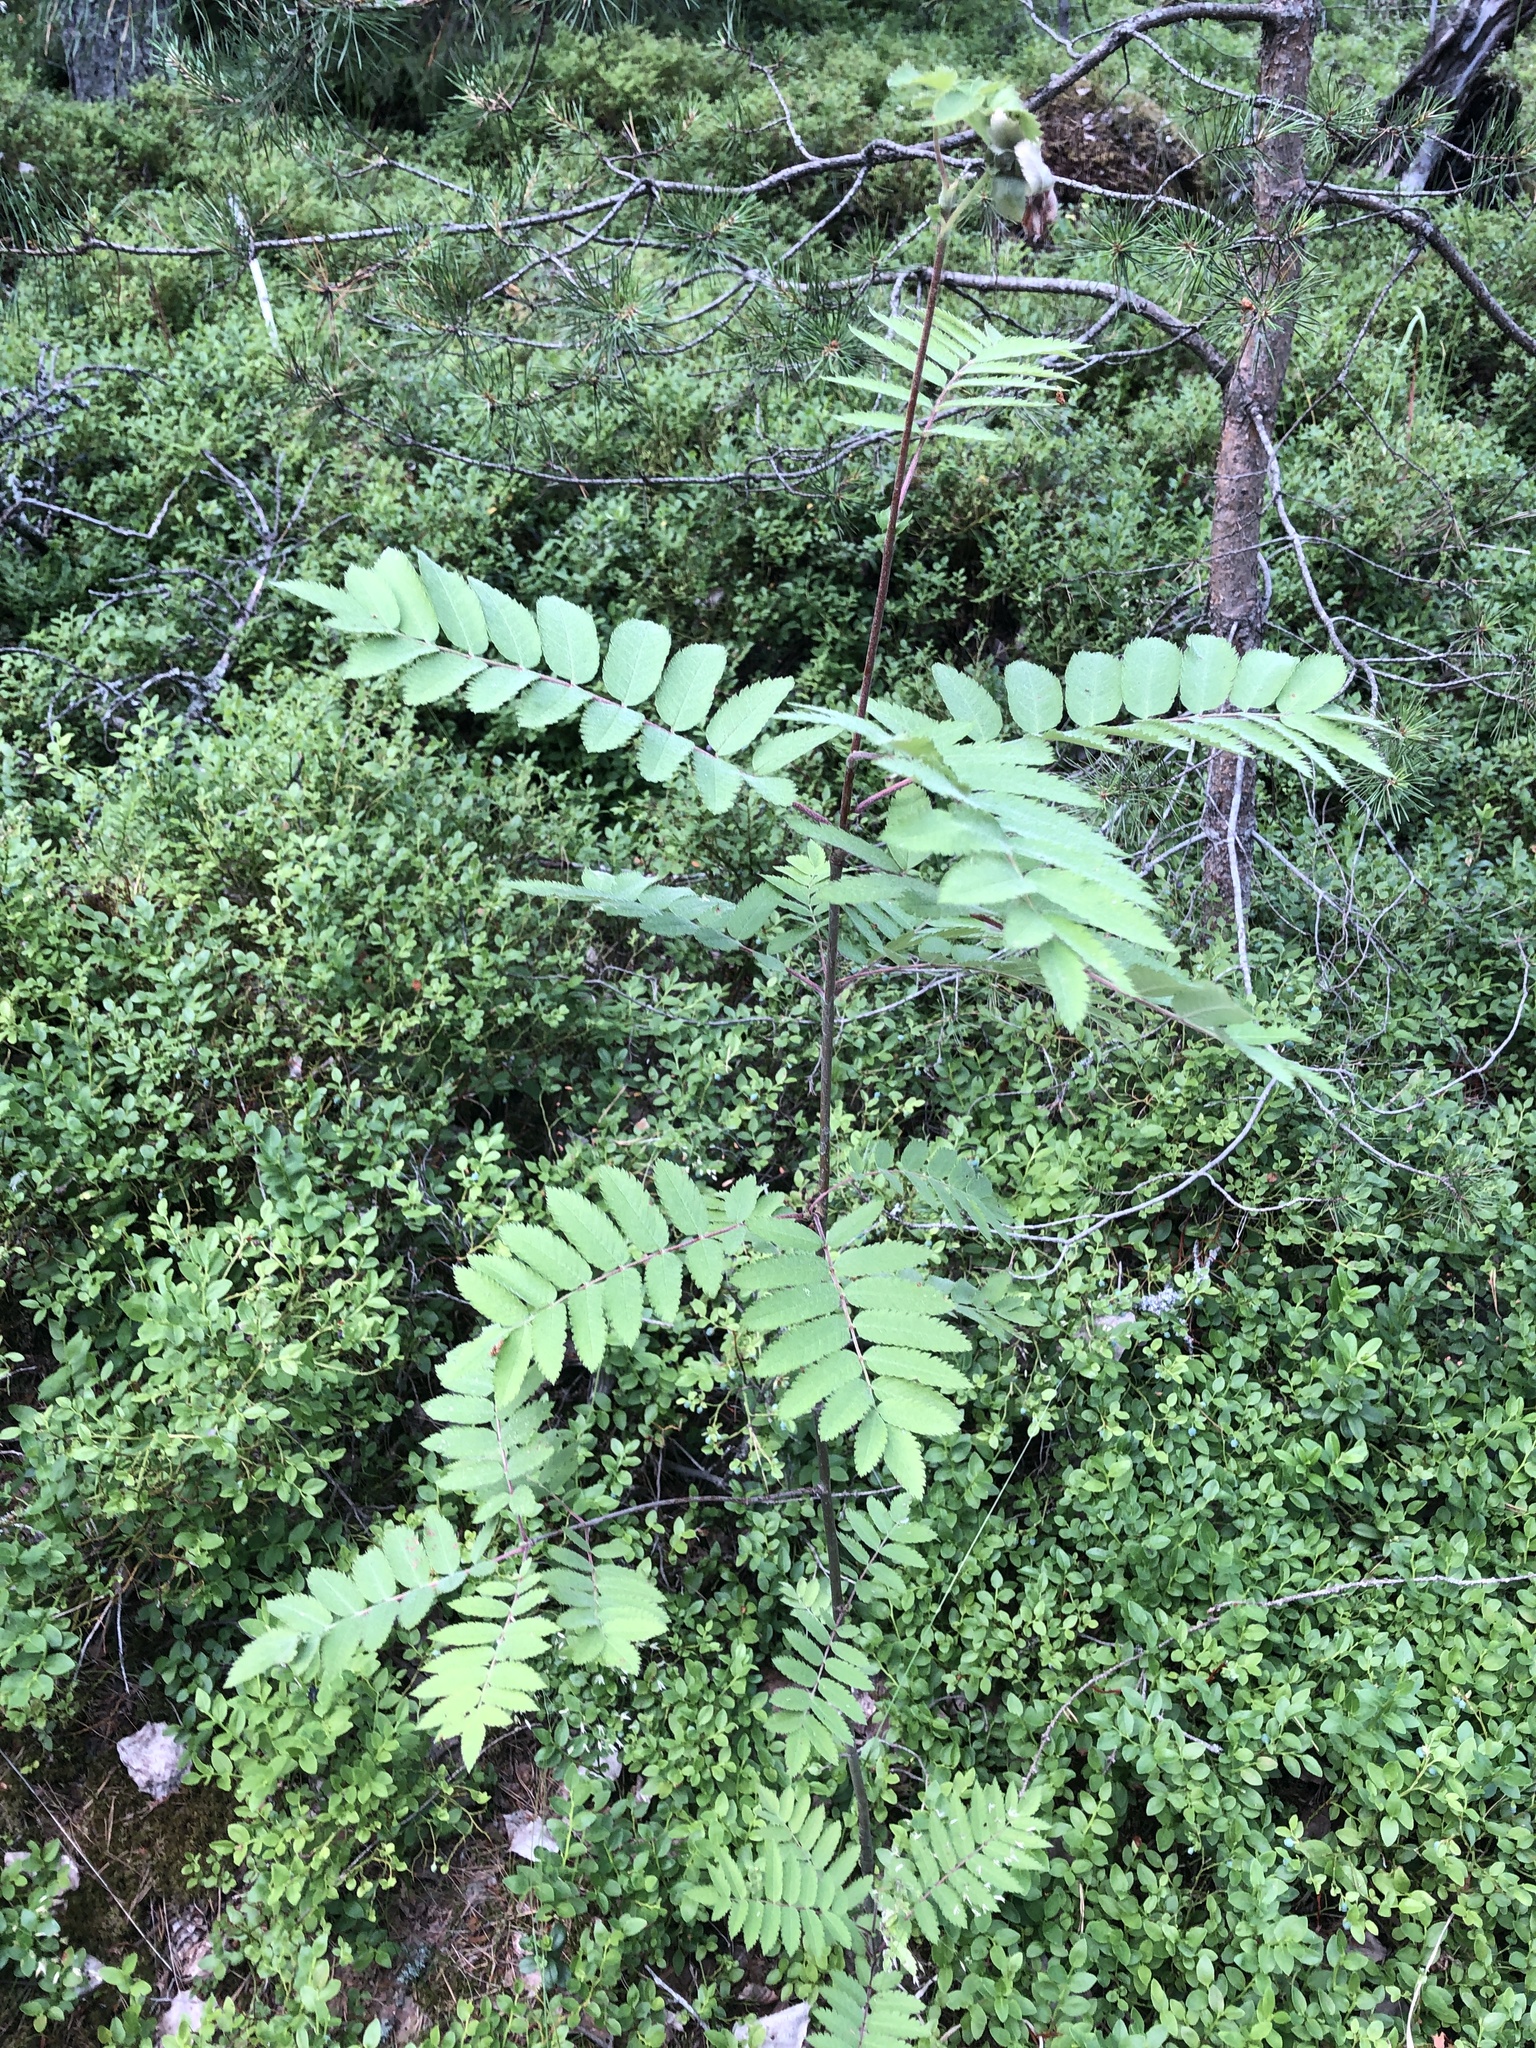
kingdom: Plantae
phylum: Tracheophyta
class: Magnoliopsida
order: Rosales
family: Rosaceae
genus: Sorbus
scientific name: Sorbus aucuparia
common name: Rowan
